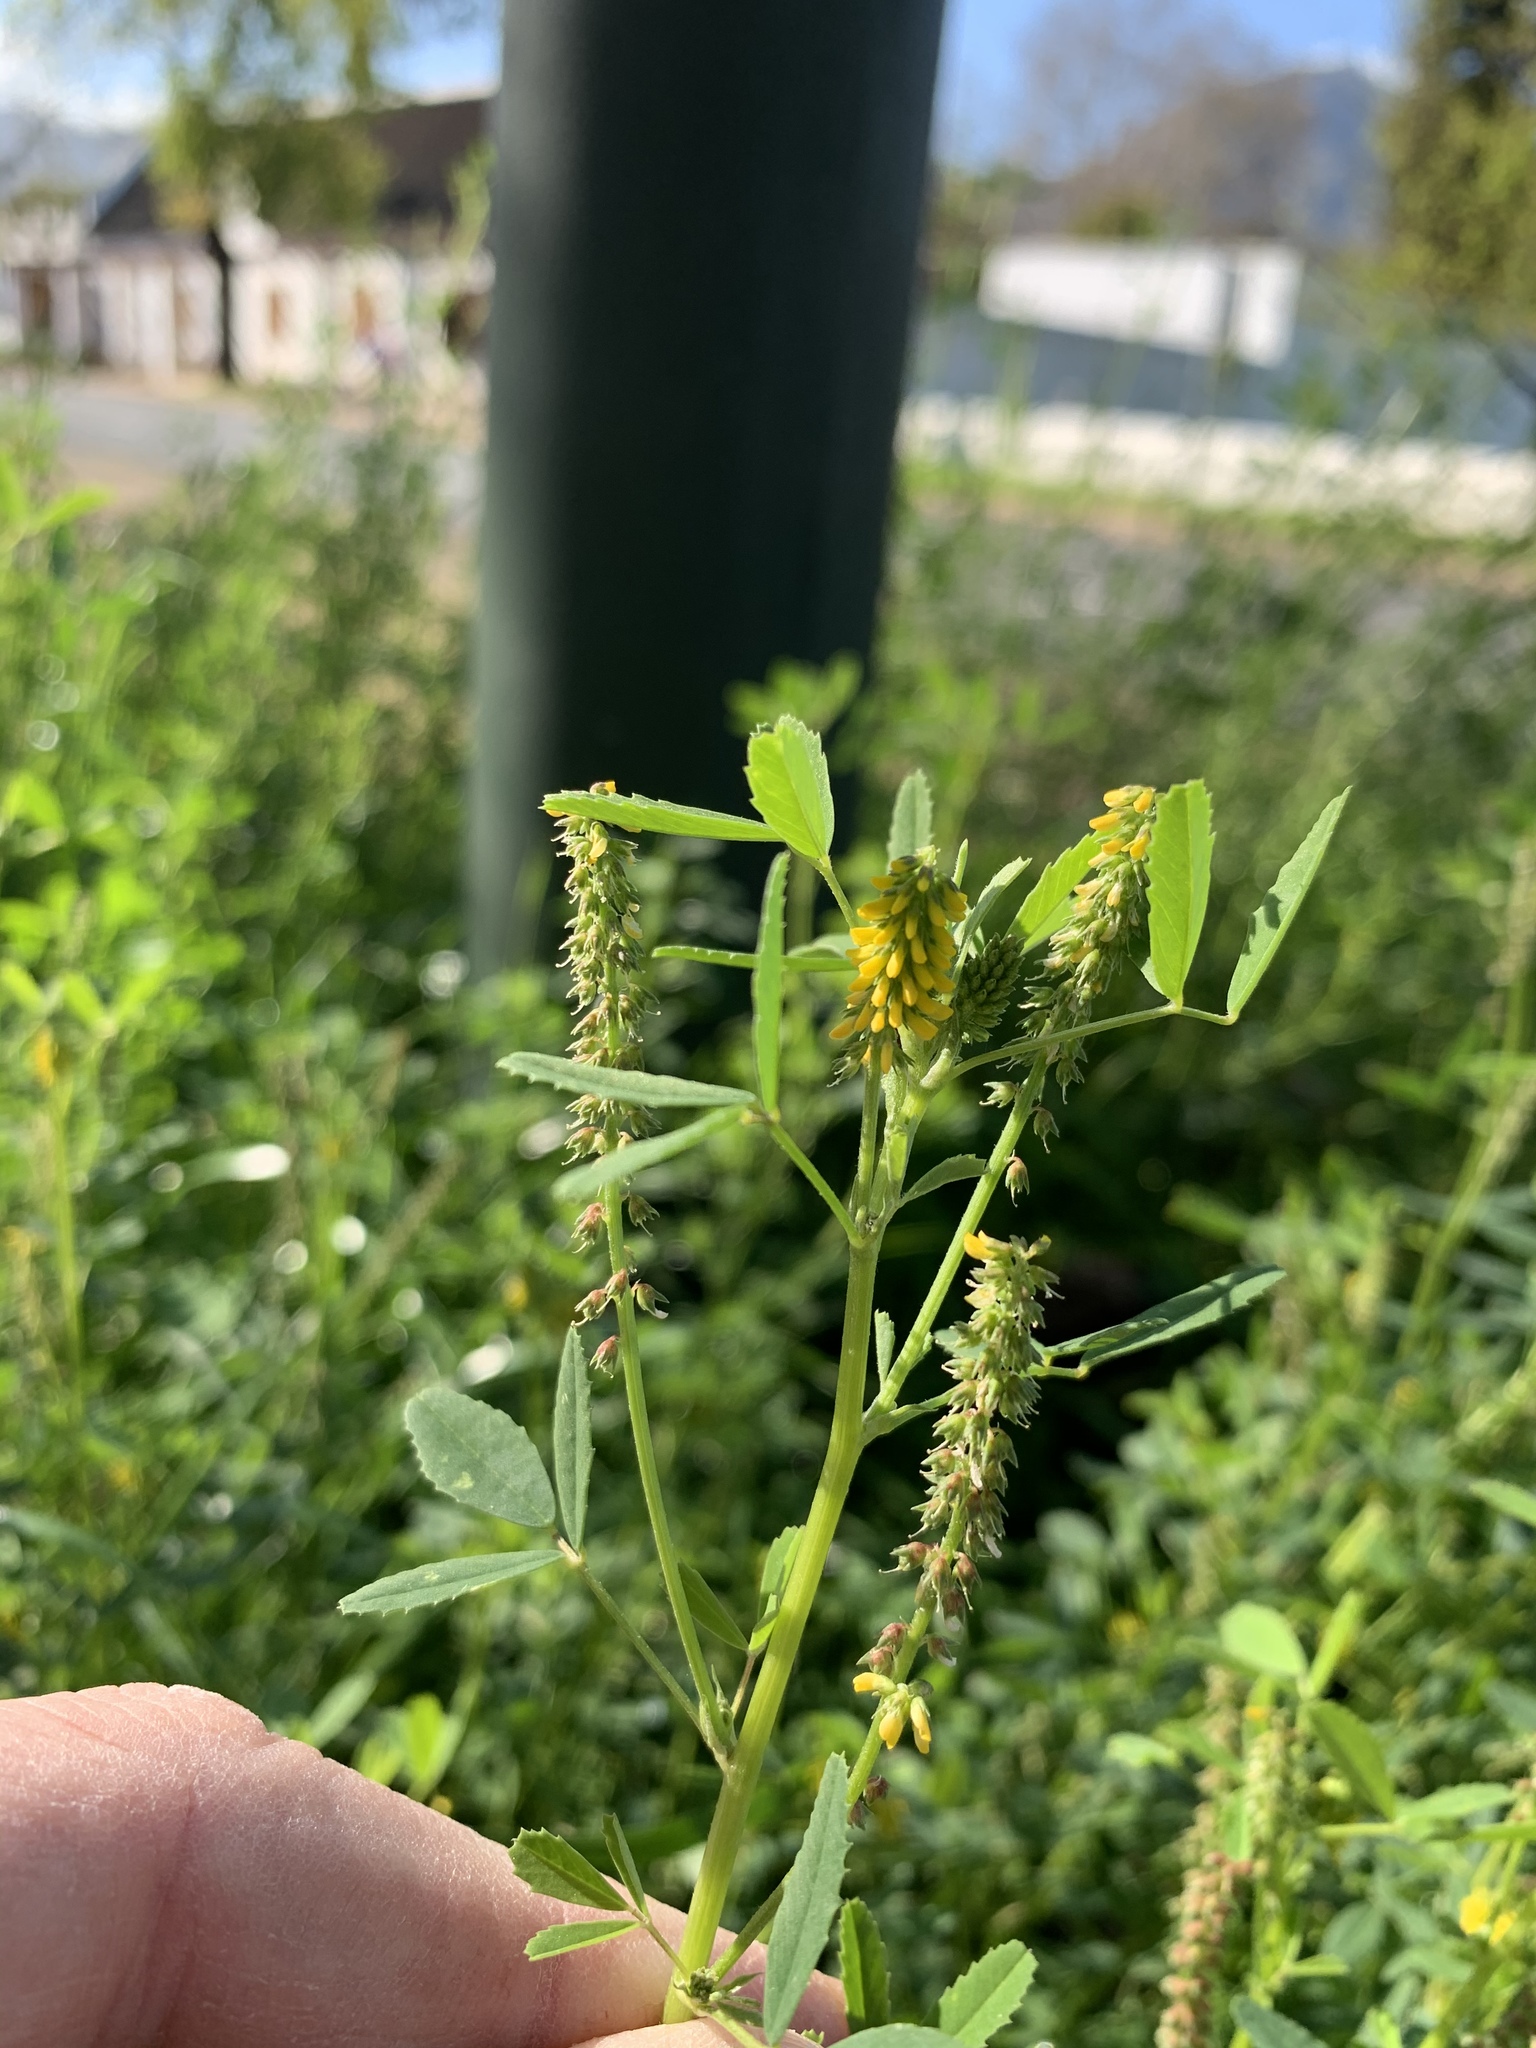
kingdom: Plantae
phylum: Tracheophyta
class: Magnoliopsida
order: Fabales
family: Fabaceae
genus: Melilotus
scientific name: Melilotus indicus
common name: Small melilot
